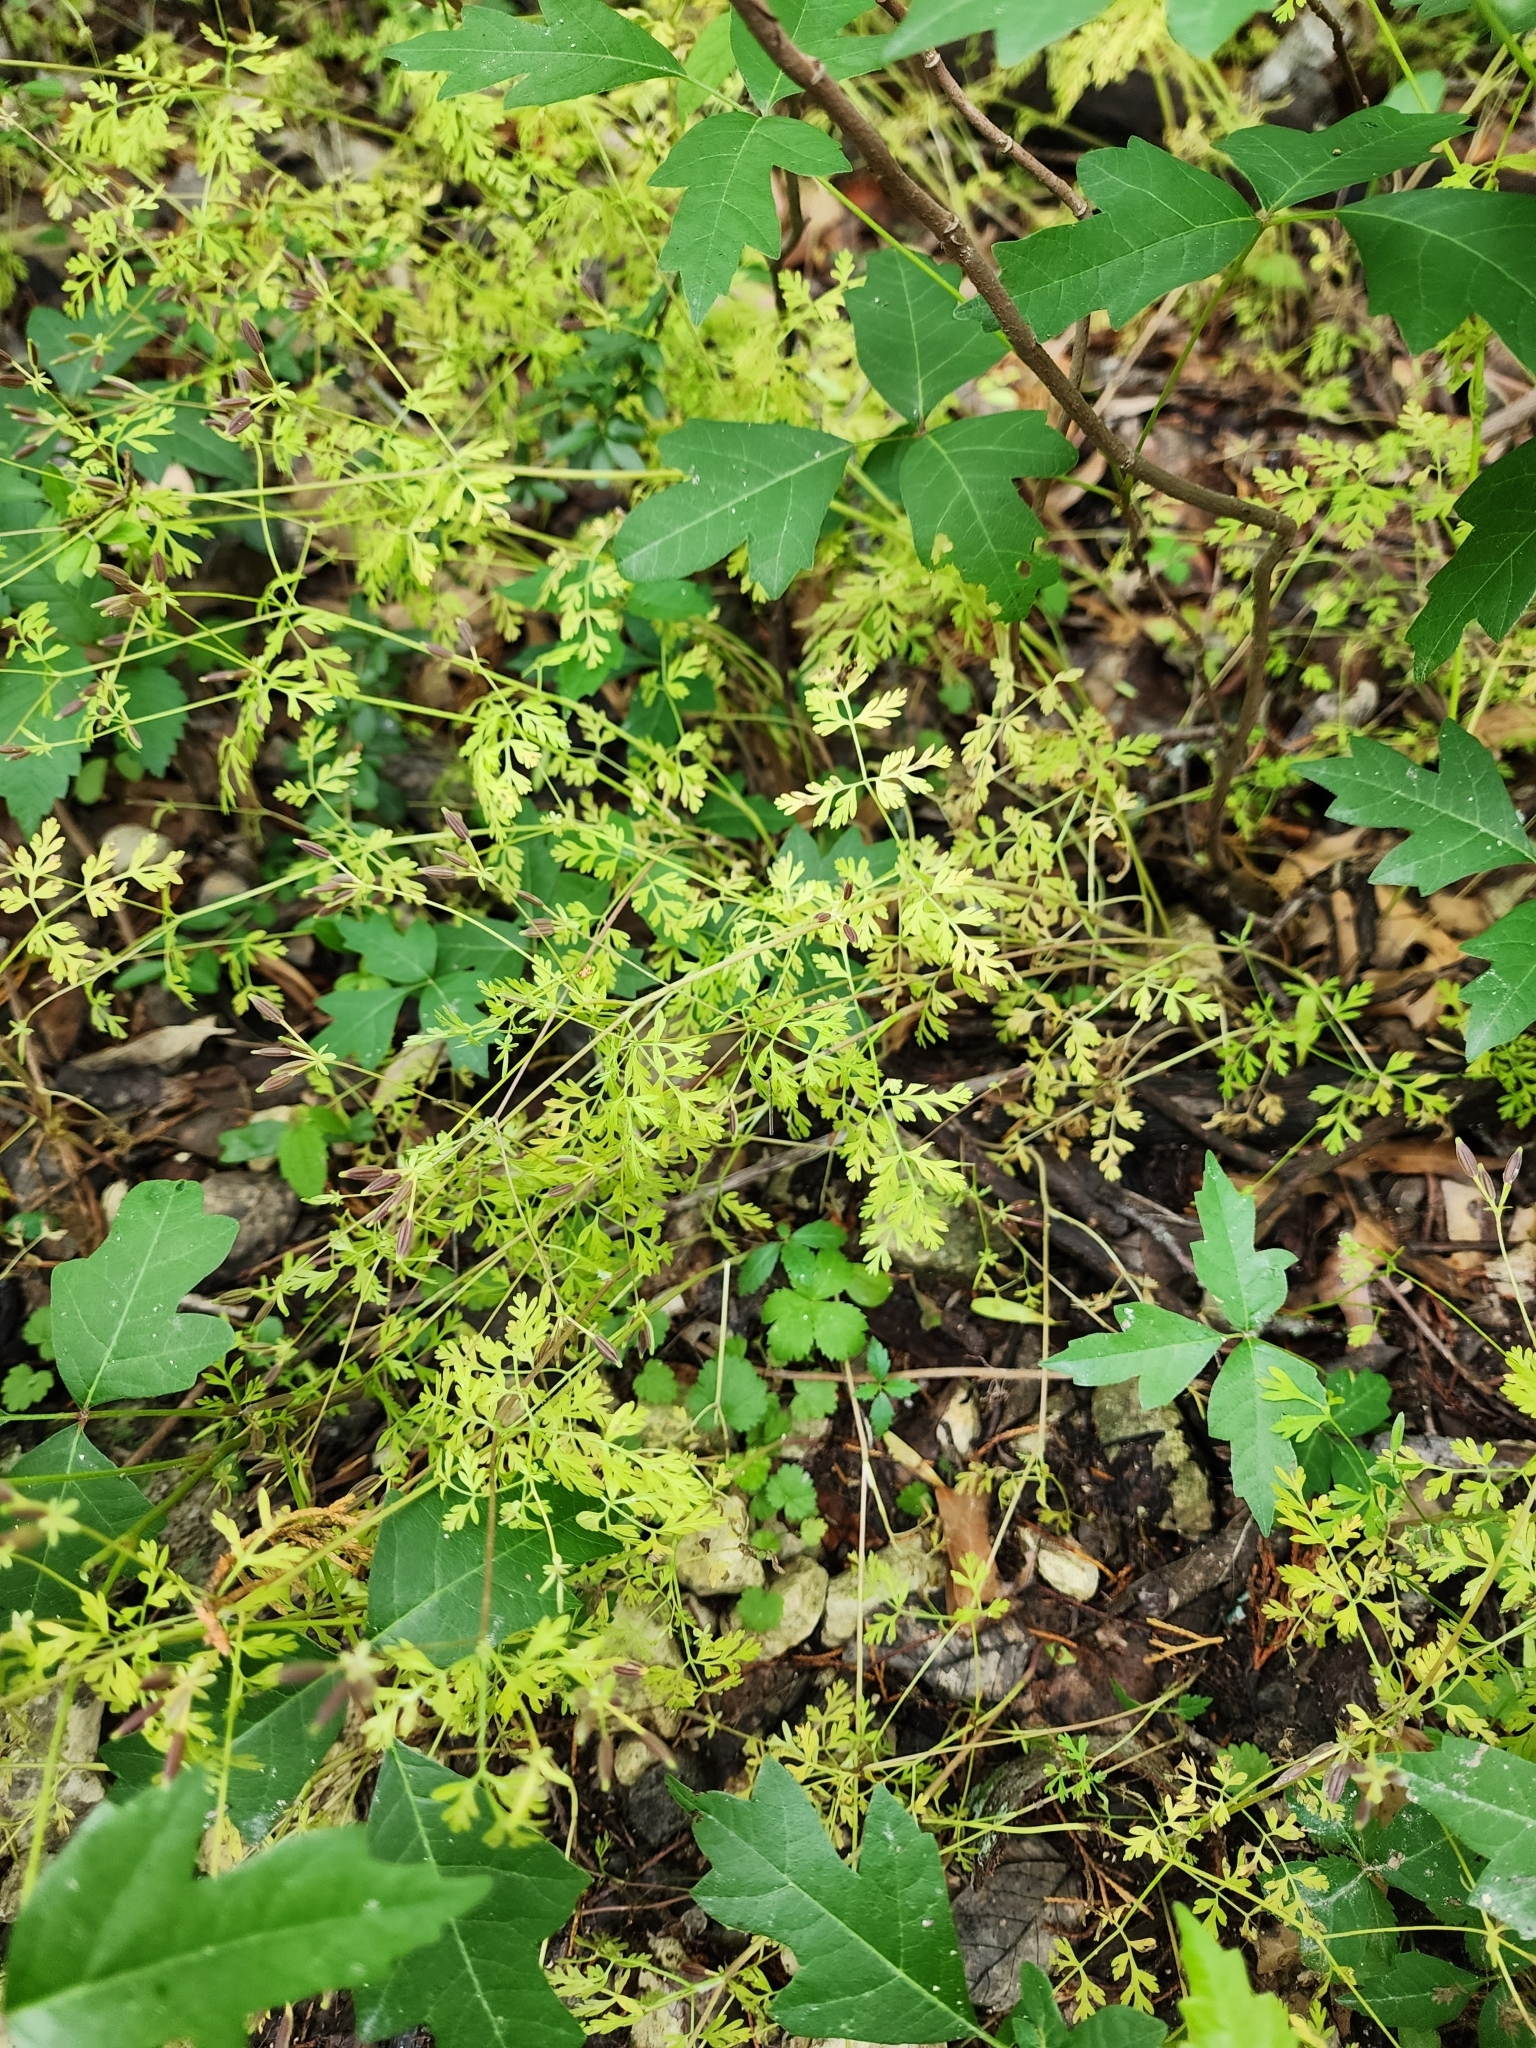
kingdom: Plantae
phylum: Tracheophyta
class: Magnoliopsida
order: Apiales
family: Apiaceae
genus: Chaerophyllum
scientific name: Chaerophyllum tainturieri
